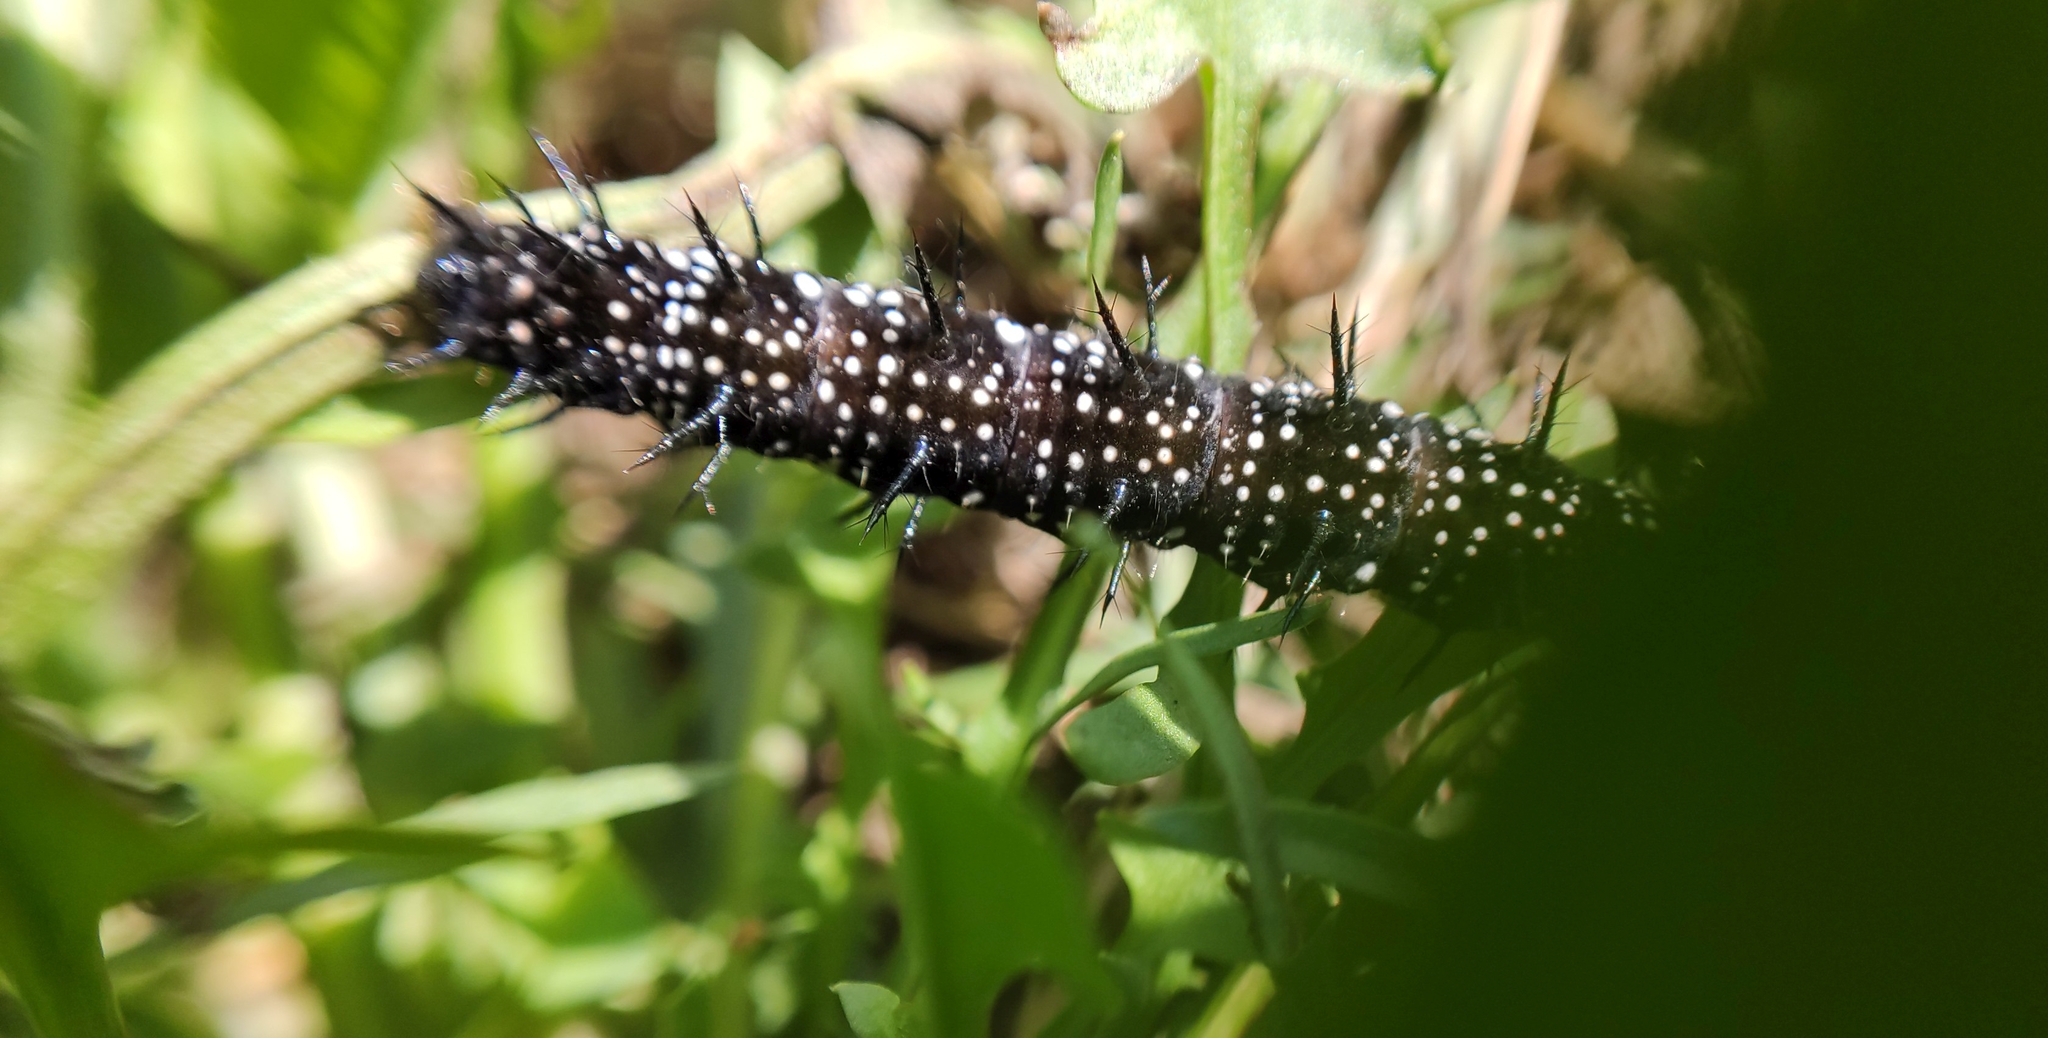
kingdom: Animalia
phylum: Arthropoda
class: Insecta
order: Lepidoptera
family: Nymphalidae
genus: Aglais
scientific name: Aglais io
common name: Peacock
